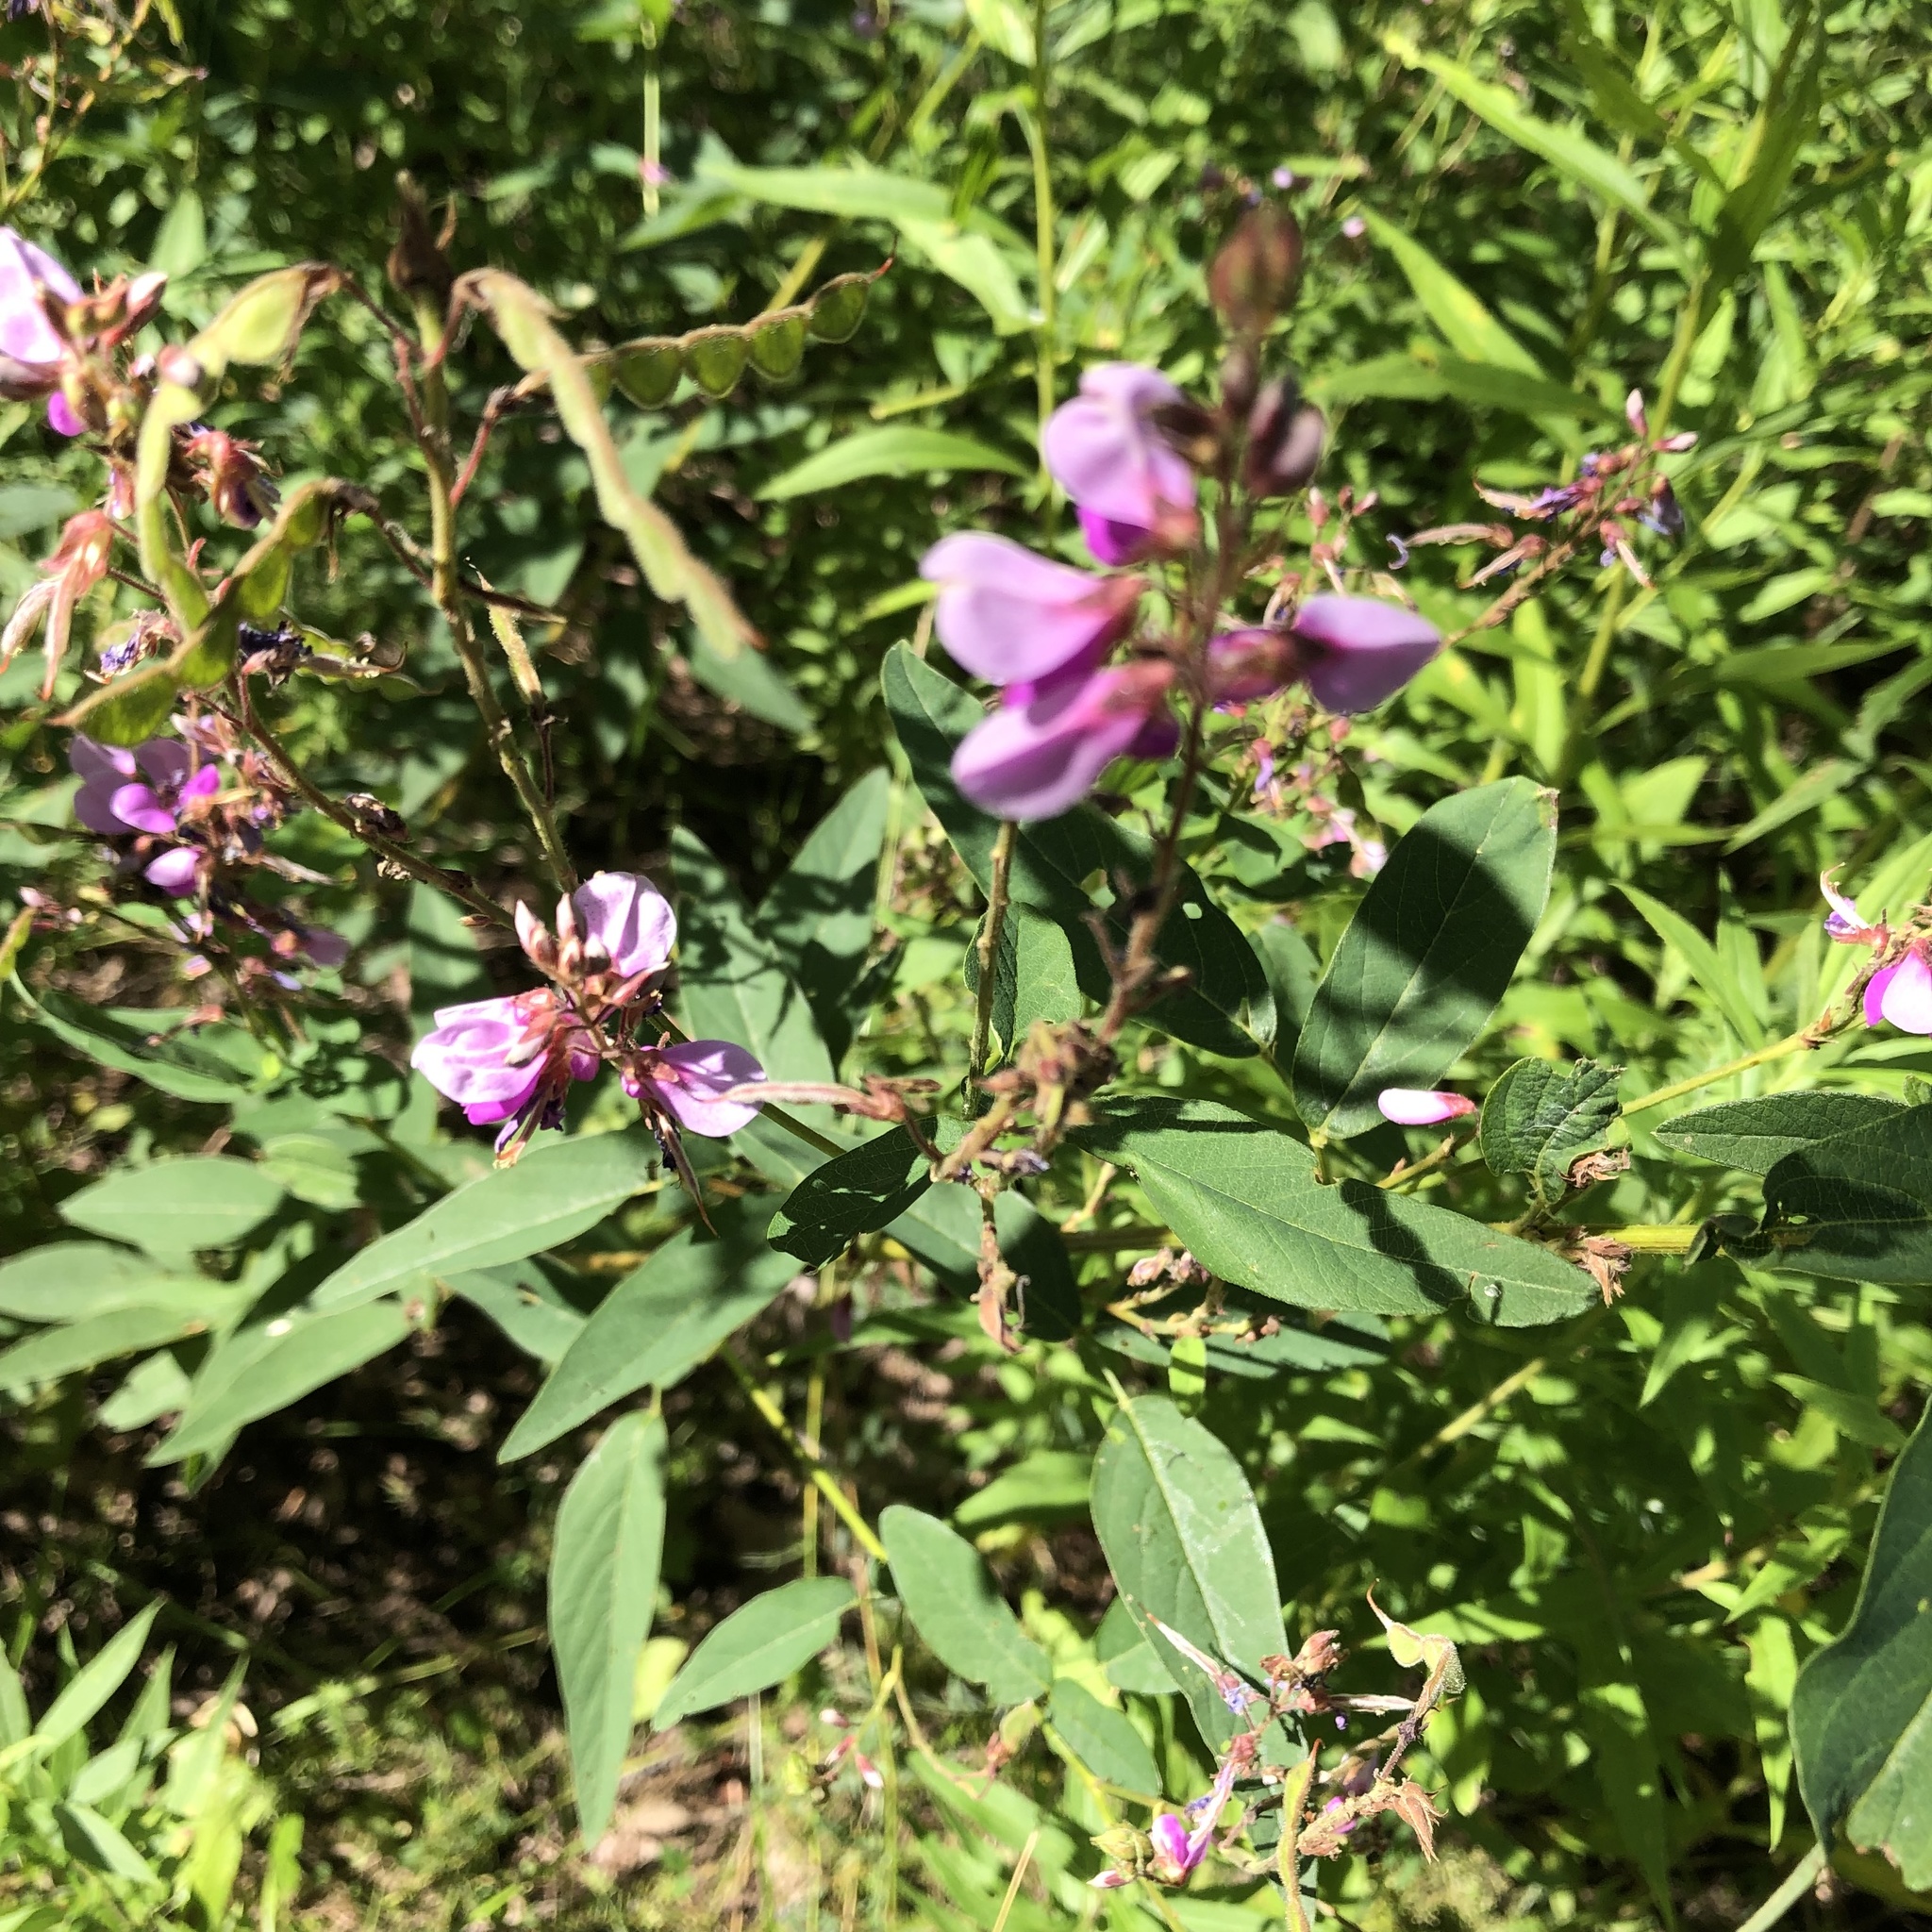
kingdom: Plantae
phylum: Tracheophyta
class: Magnoliopsida
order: Fabales
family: Fabaceae
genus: Desmodium
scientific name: Desmodium canadense
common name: Canada tick-trefoil
